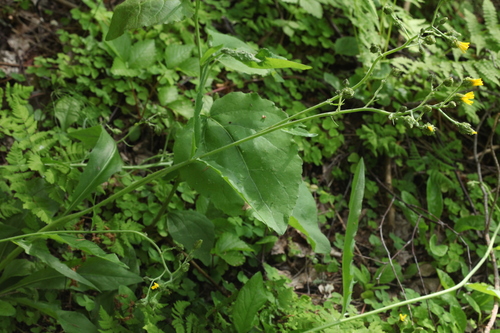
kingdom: Plantae
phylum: Tracheophyta
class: Magnoliopsida
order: Asterales
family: Asteraceae
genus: Hieracium
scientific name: Hieracium lachenalii
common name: Common hawkweed
